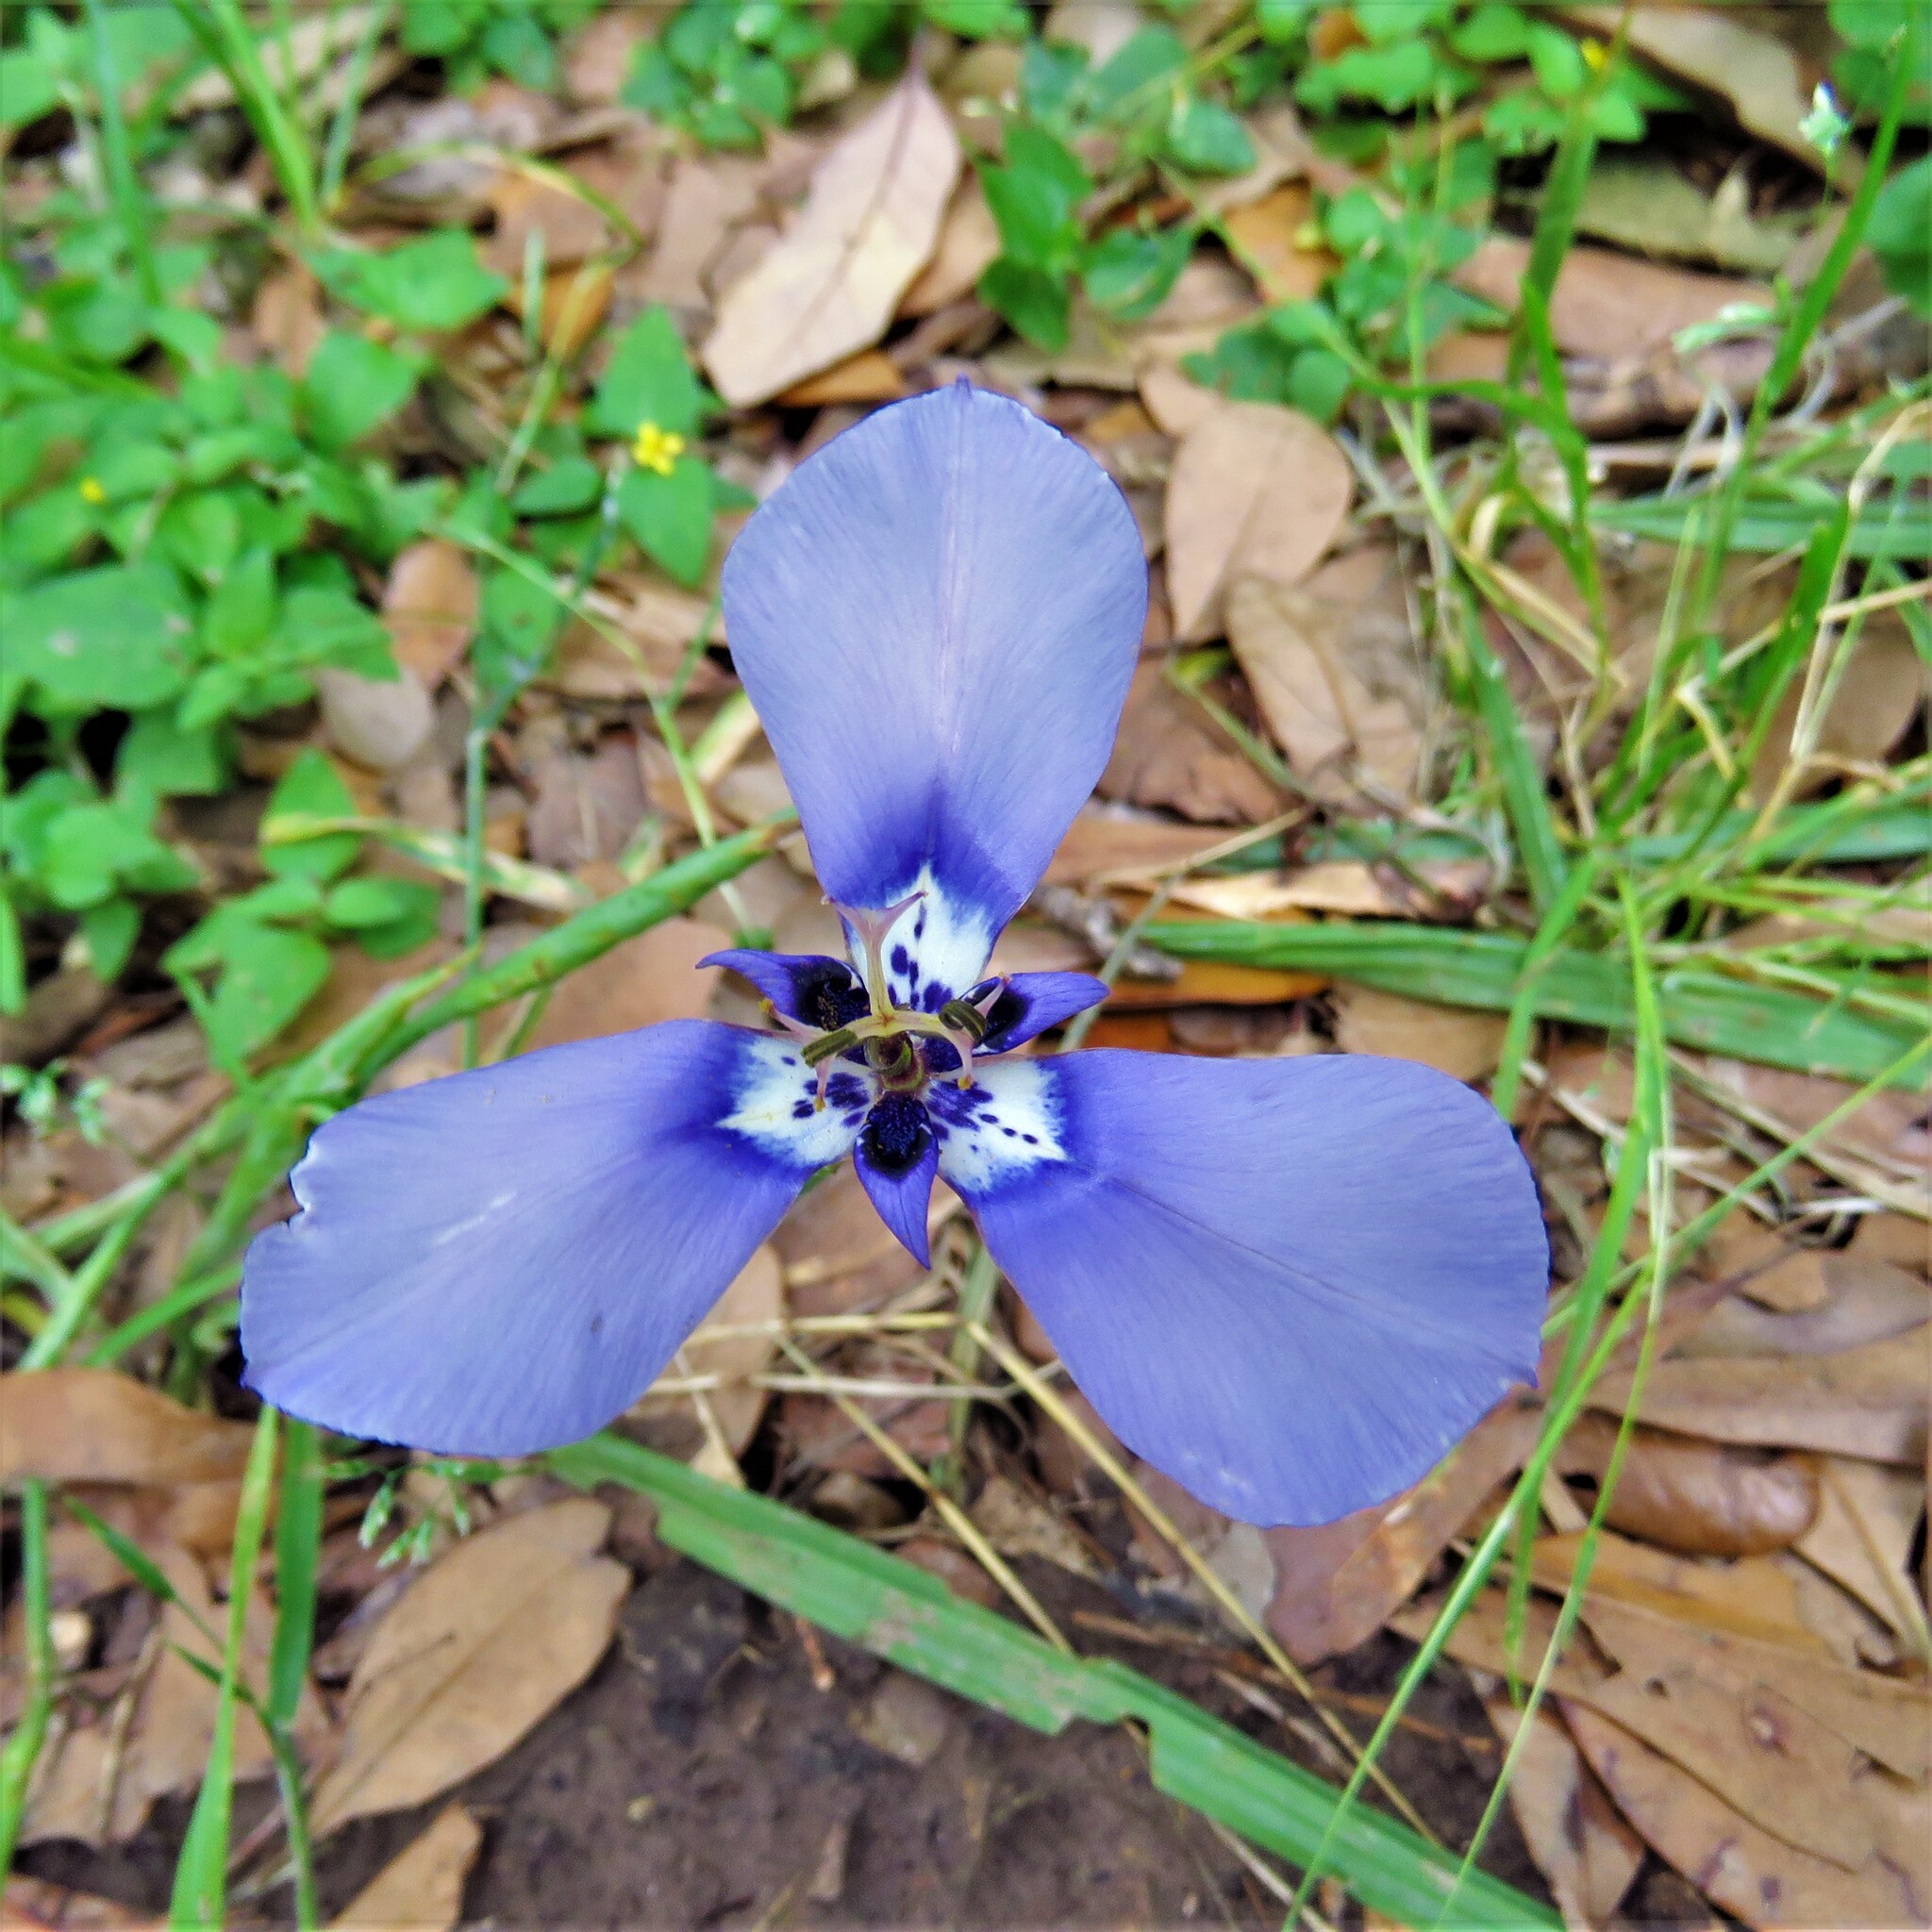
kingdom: Plantae
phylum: Tracheophyta
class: Liliopsida
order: Asparagales
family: Iridaceae
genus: Herbertia
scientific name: Herbertia lahue
